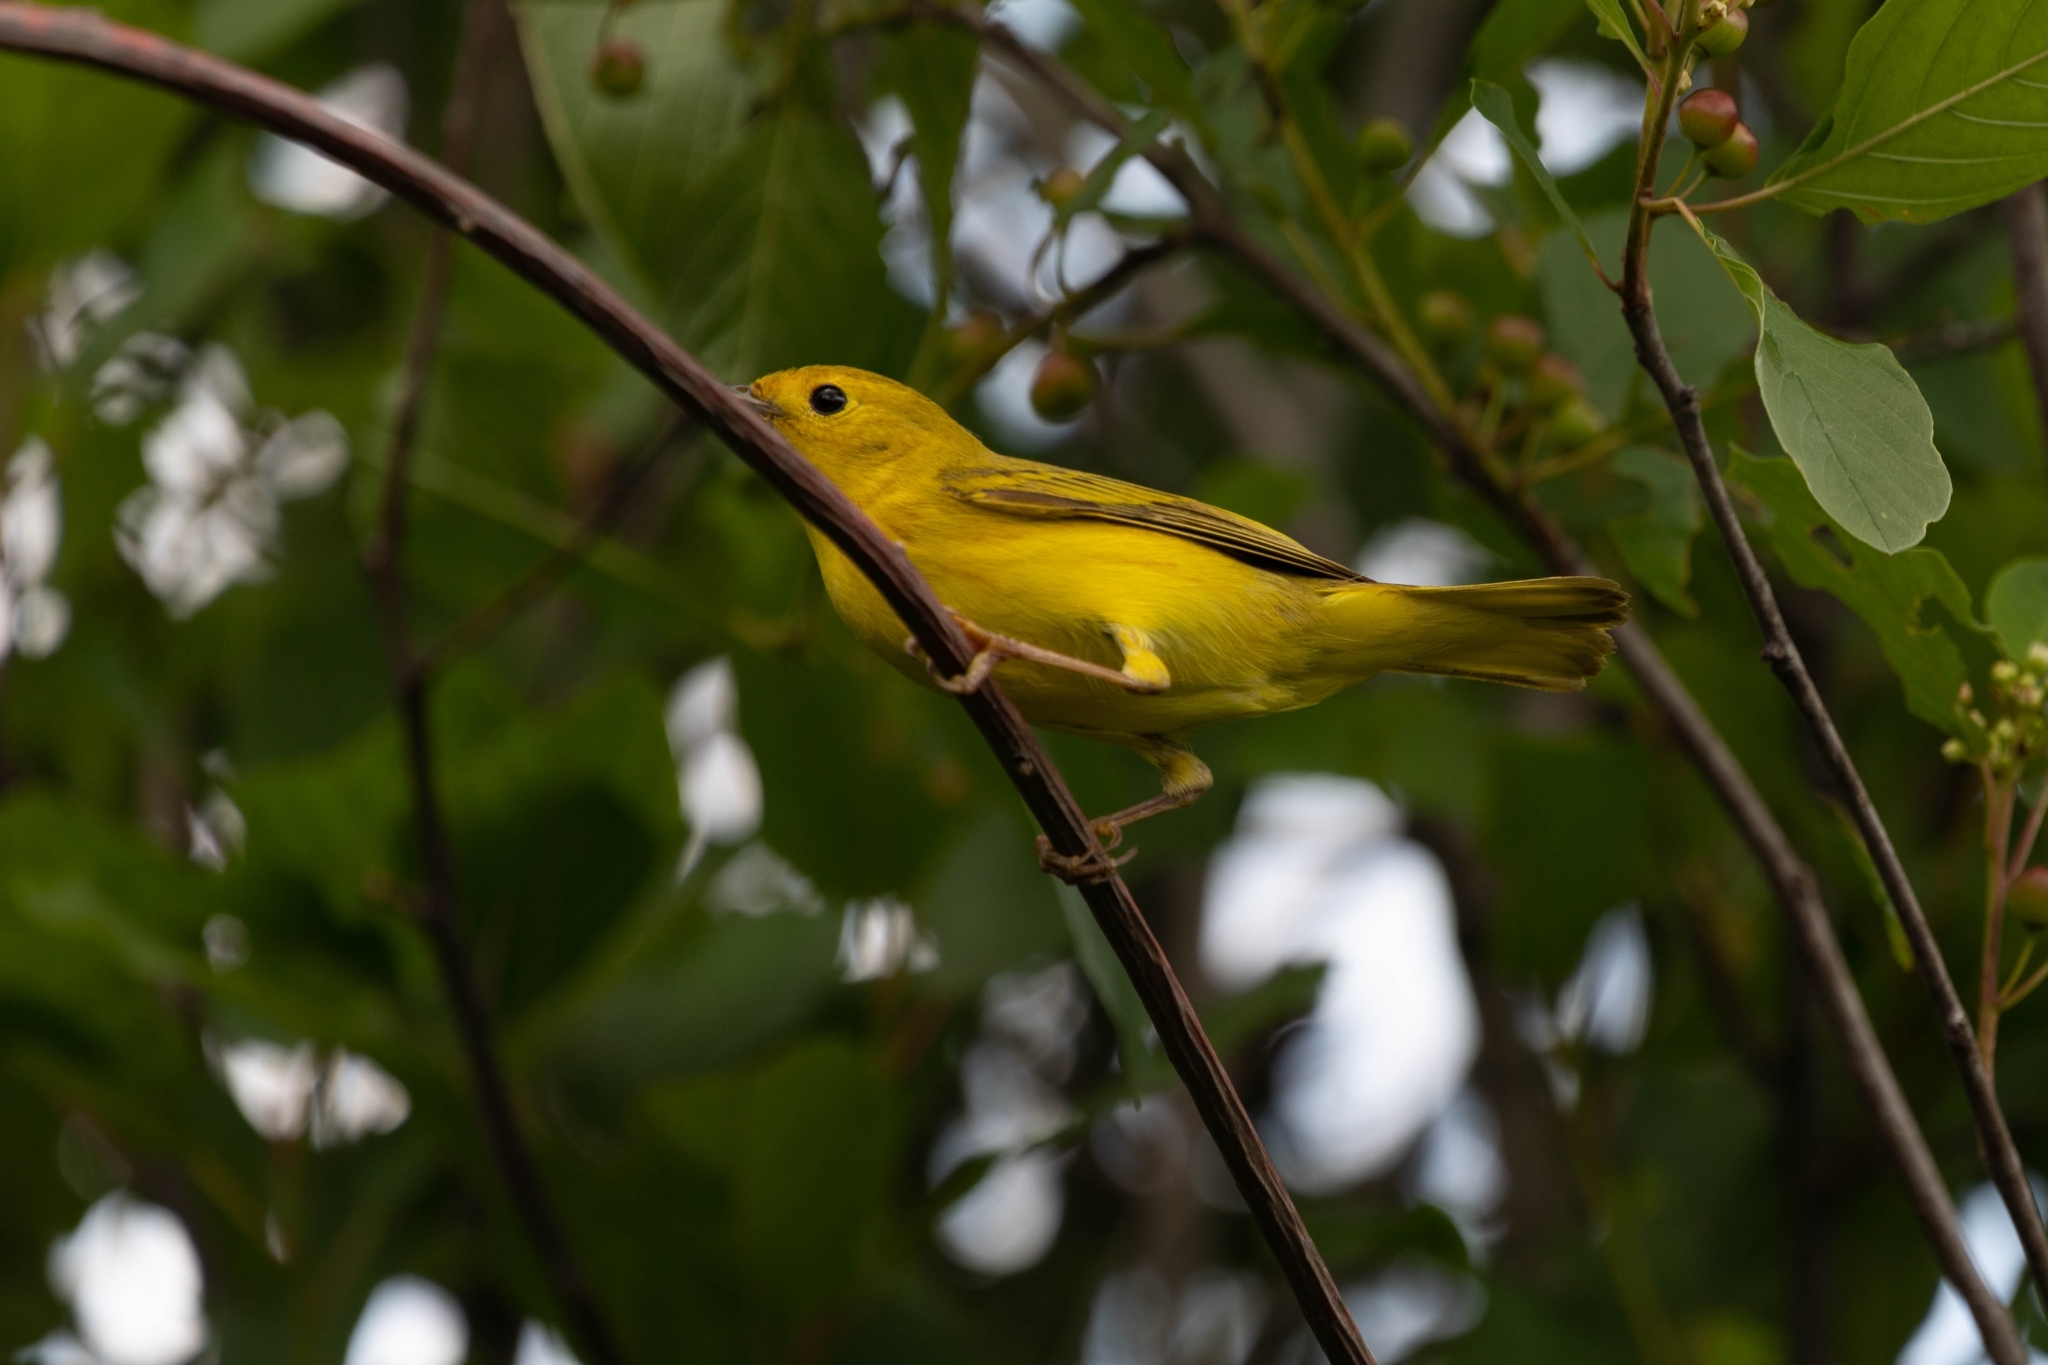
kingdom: Animalia
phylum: Chordata
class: Aves
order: Passeriformes
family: Parulidae
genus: Setophaga
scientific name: Setophaga petechia
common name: Yellow warbler
